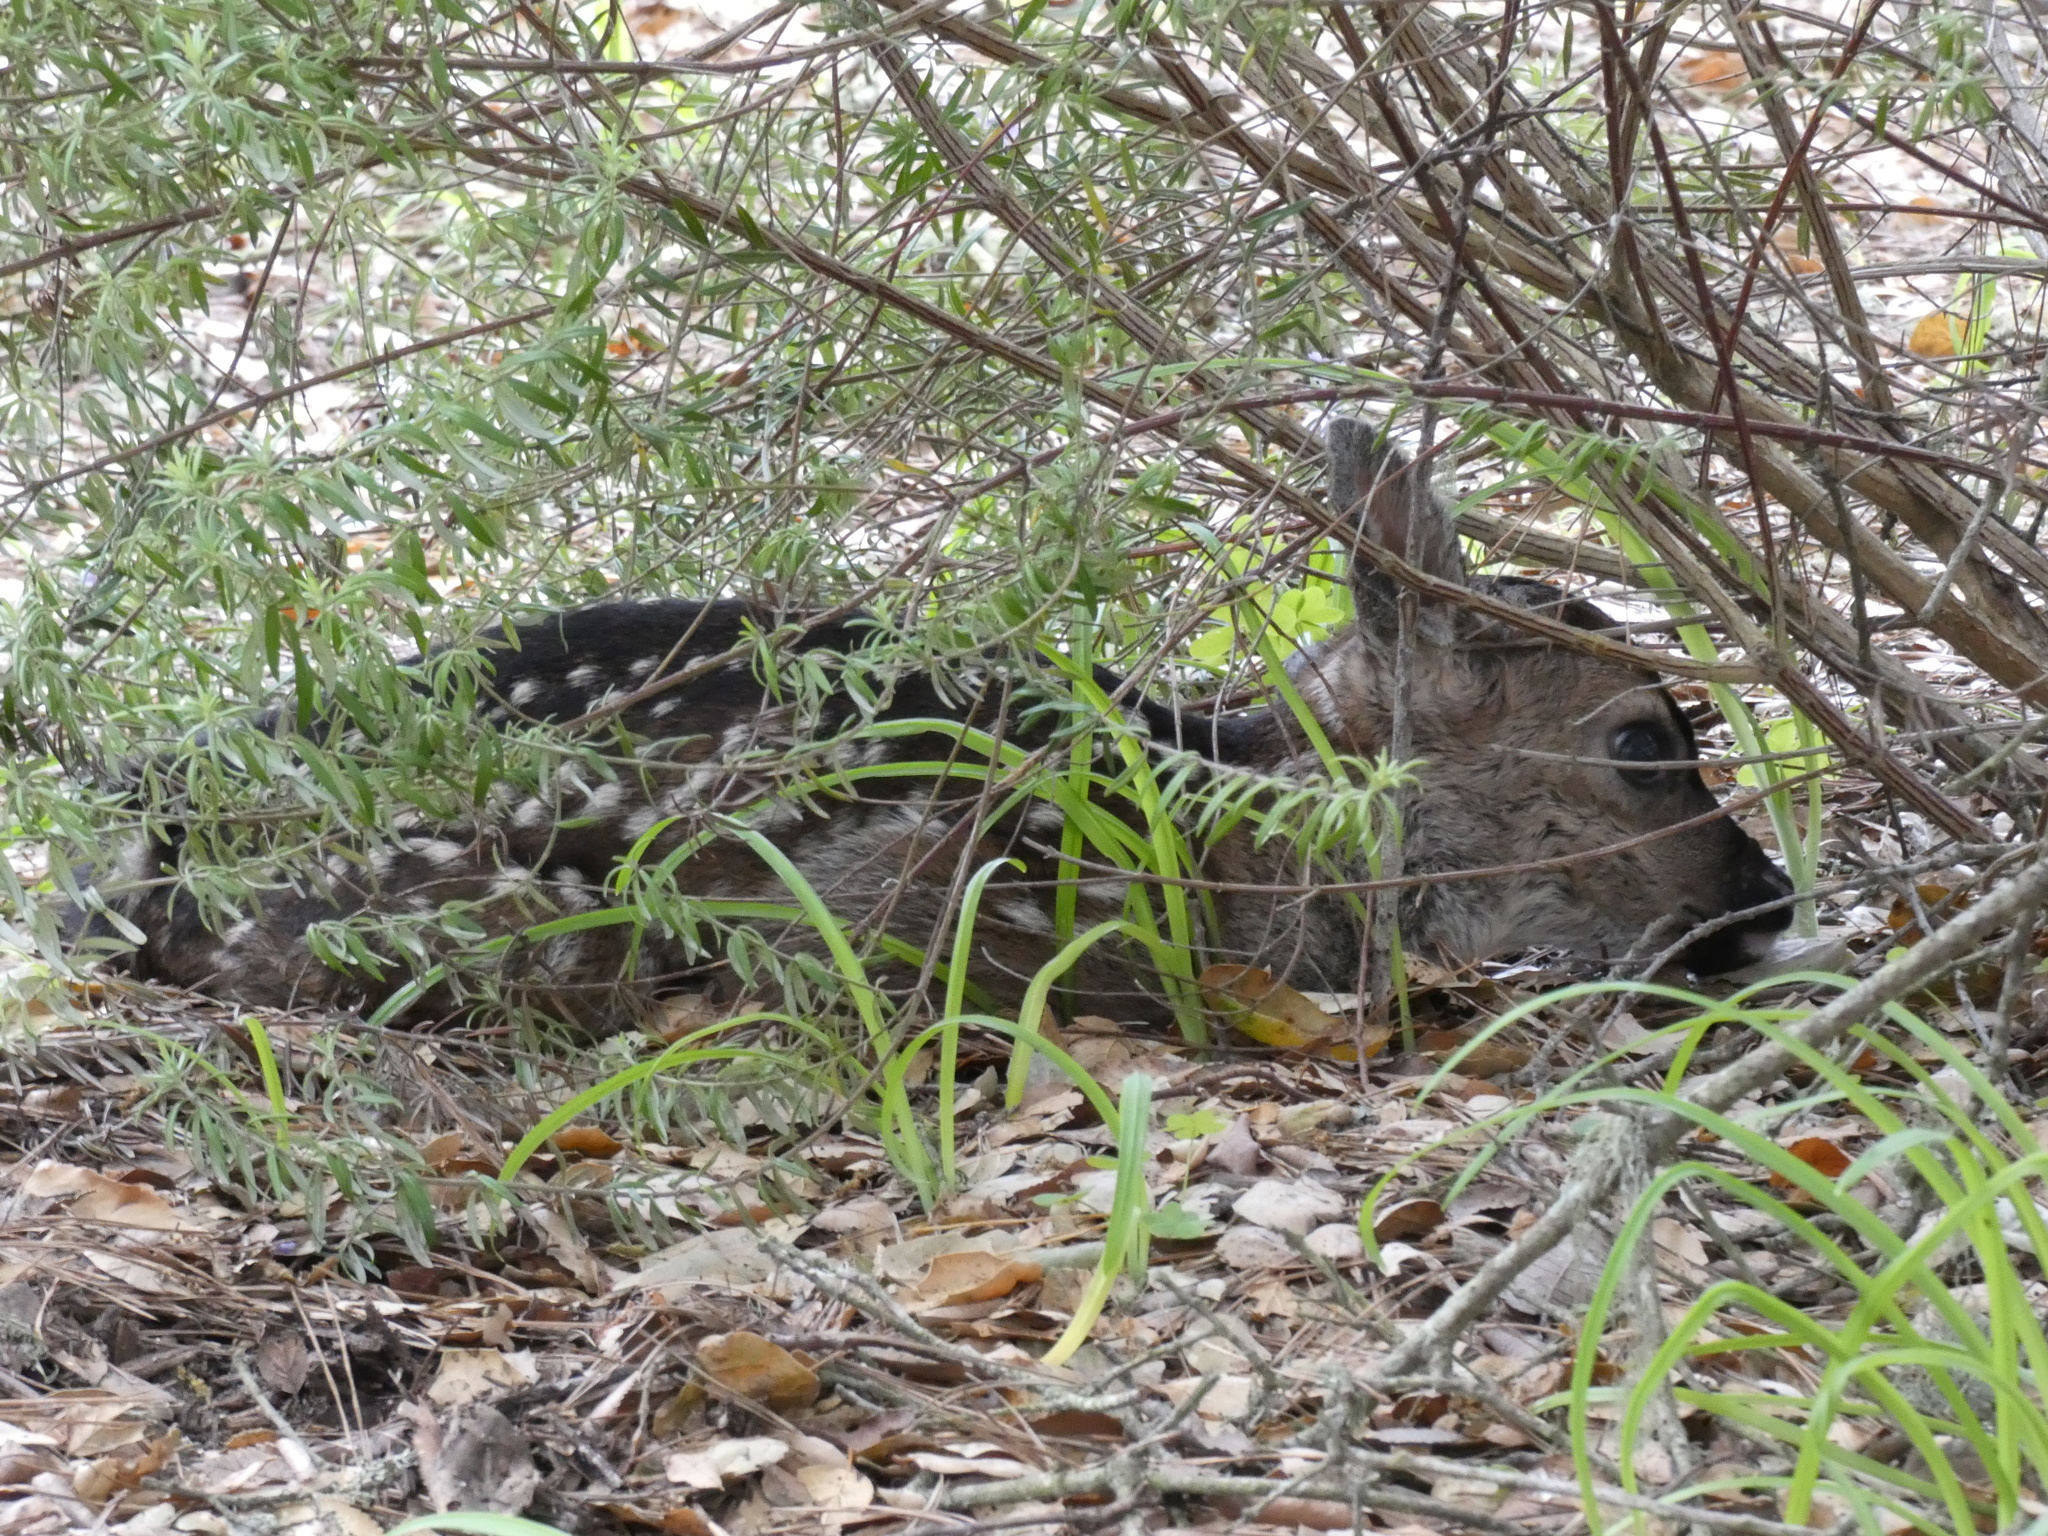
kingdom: Animalia
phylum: Chordata
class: Mammalia
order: Artiodactyla
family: Cervidae
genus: Odocoileus
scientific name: Odocoileus hemionus
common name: Mule deer
